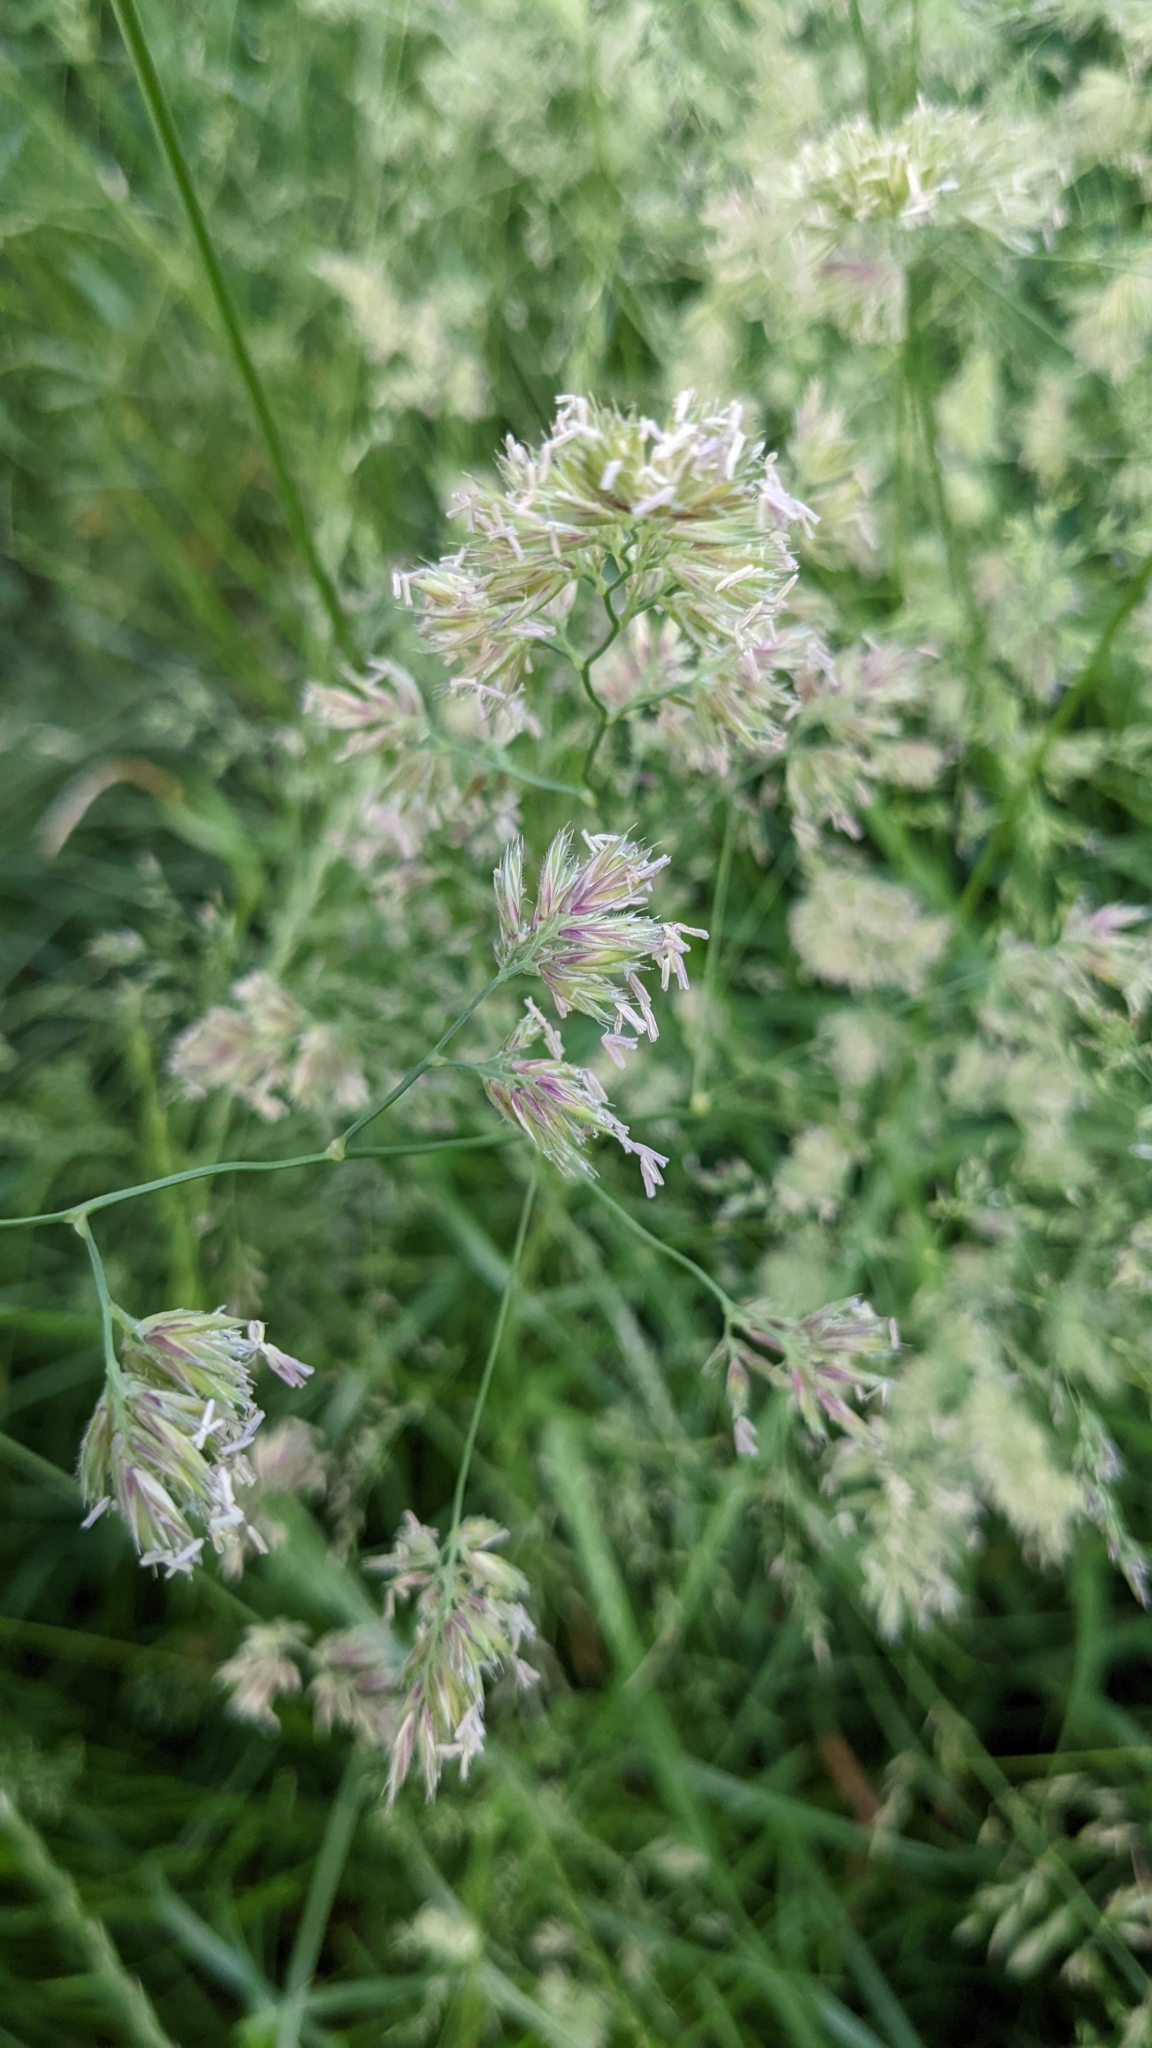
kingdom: Plantae
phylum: Tracheophyta
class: Liliopsida
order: Poales
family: Poaceae
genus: Dactylis
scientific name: Dactylis glomerata
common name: Orchardgrass
